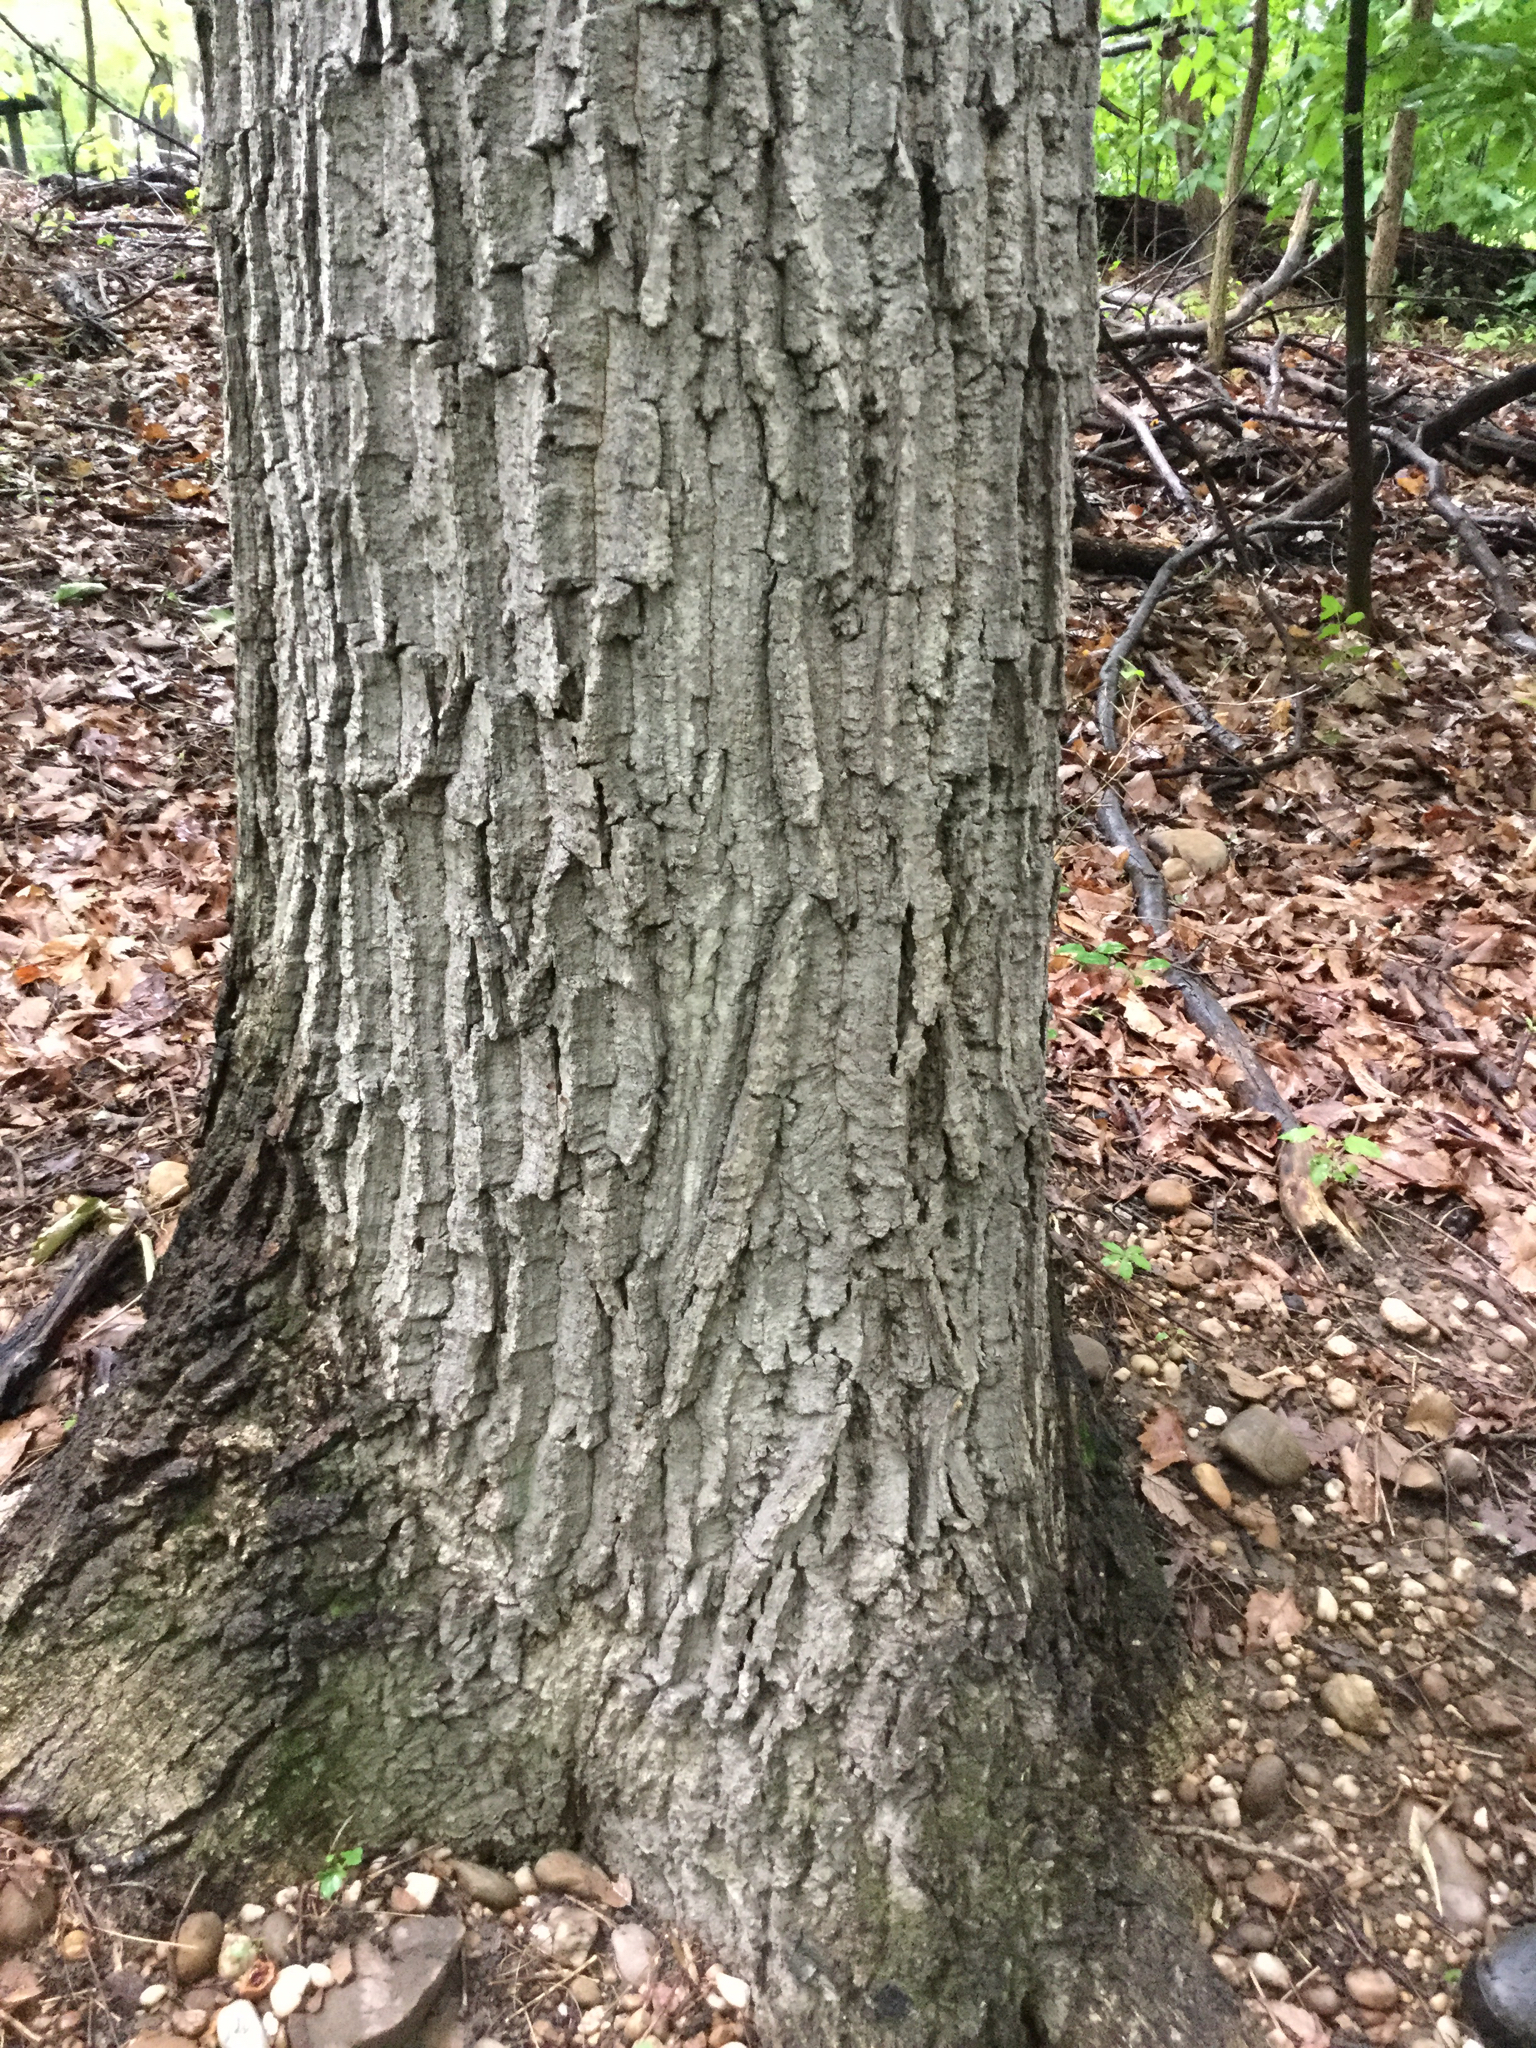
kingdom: Plantae
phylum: Tracheophyta
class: Magnoliopsida
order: Fagales
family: Fagaceae
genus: Quercus
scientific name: Quercus montana
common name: Chestnut oak
